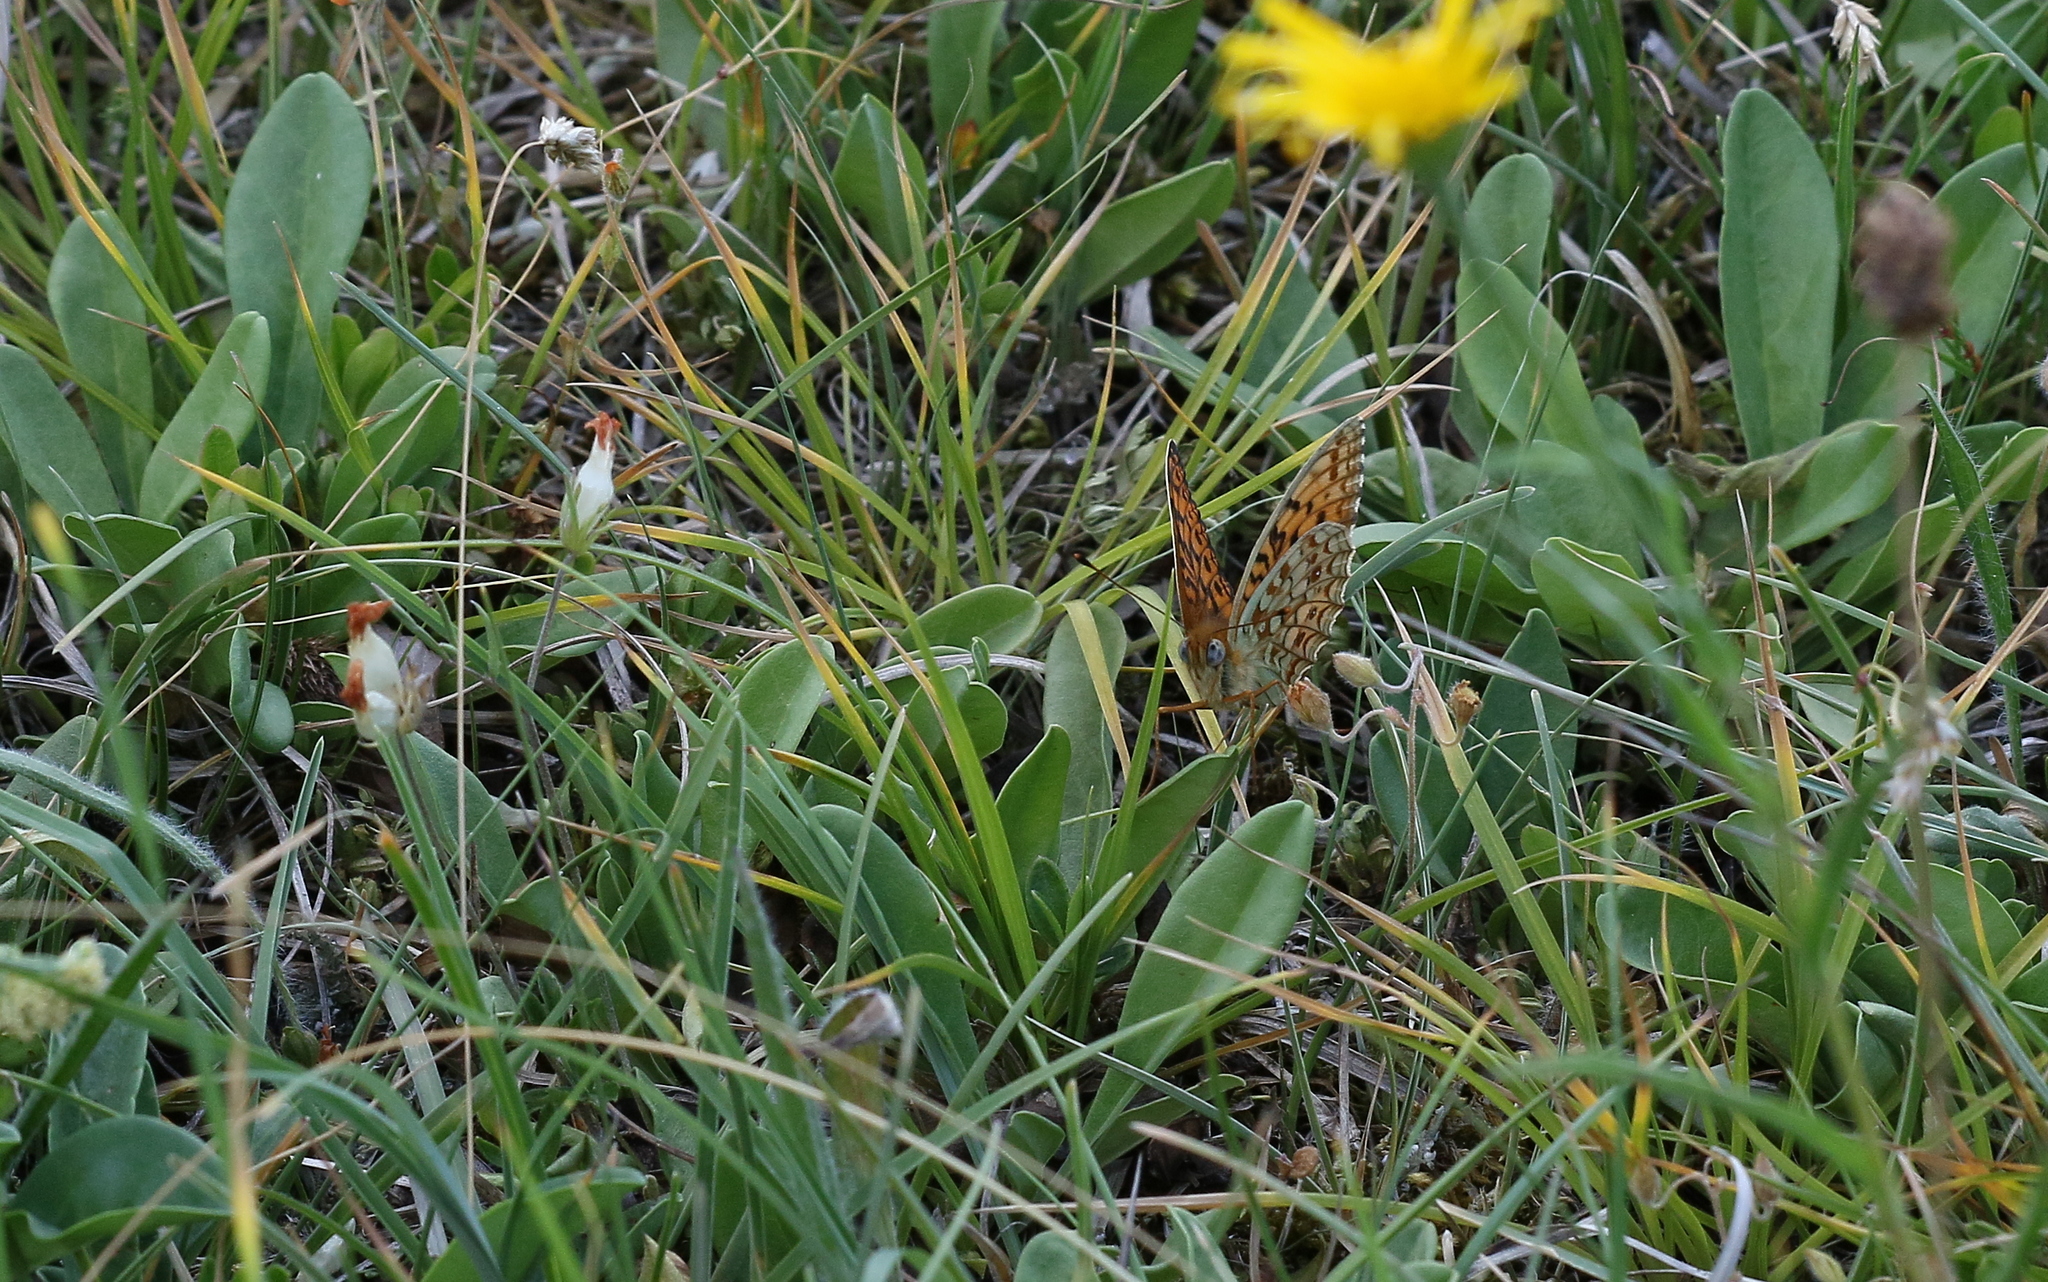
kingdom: Animalia
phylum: Arthropoda
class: Insecta
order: Lepidoptera
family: Nymphalidae
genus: Fabriciana
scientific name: Fabriciana niobe
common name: Niobe fritillary
